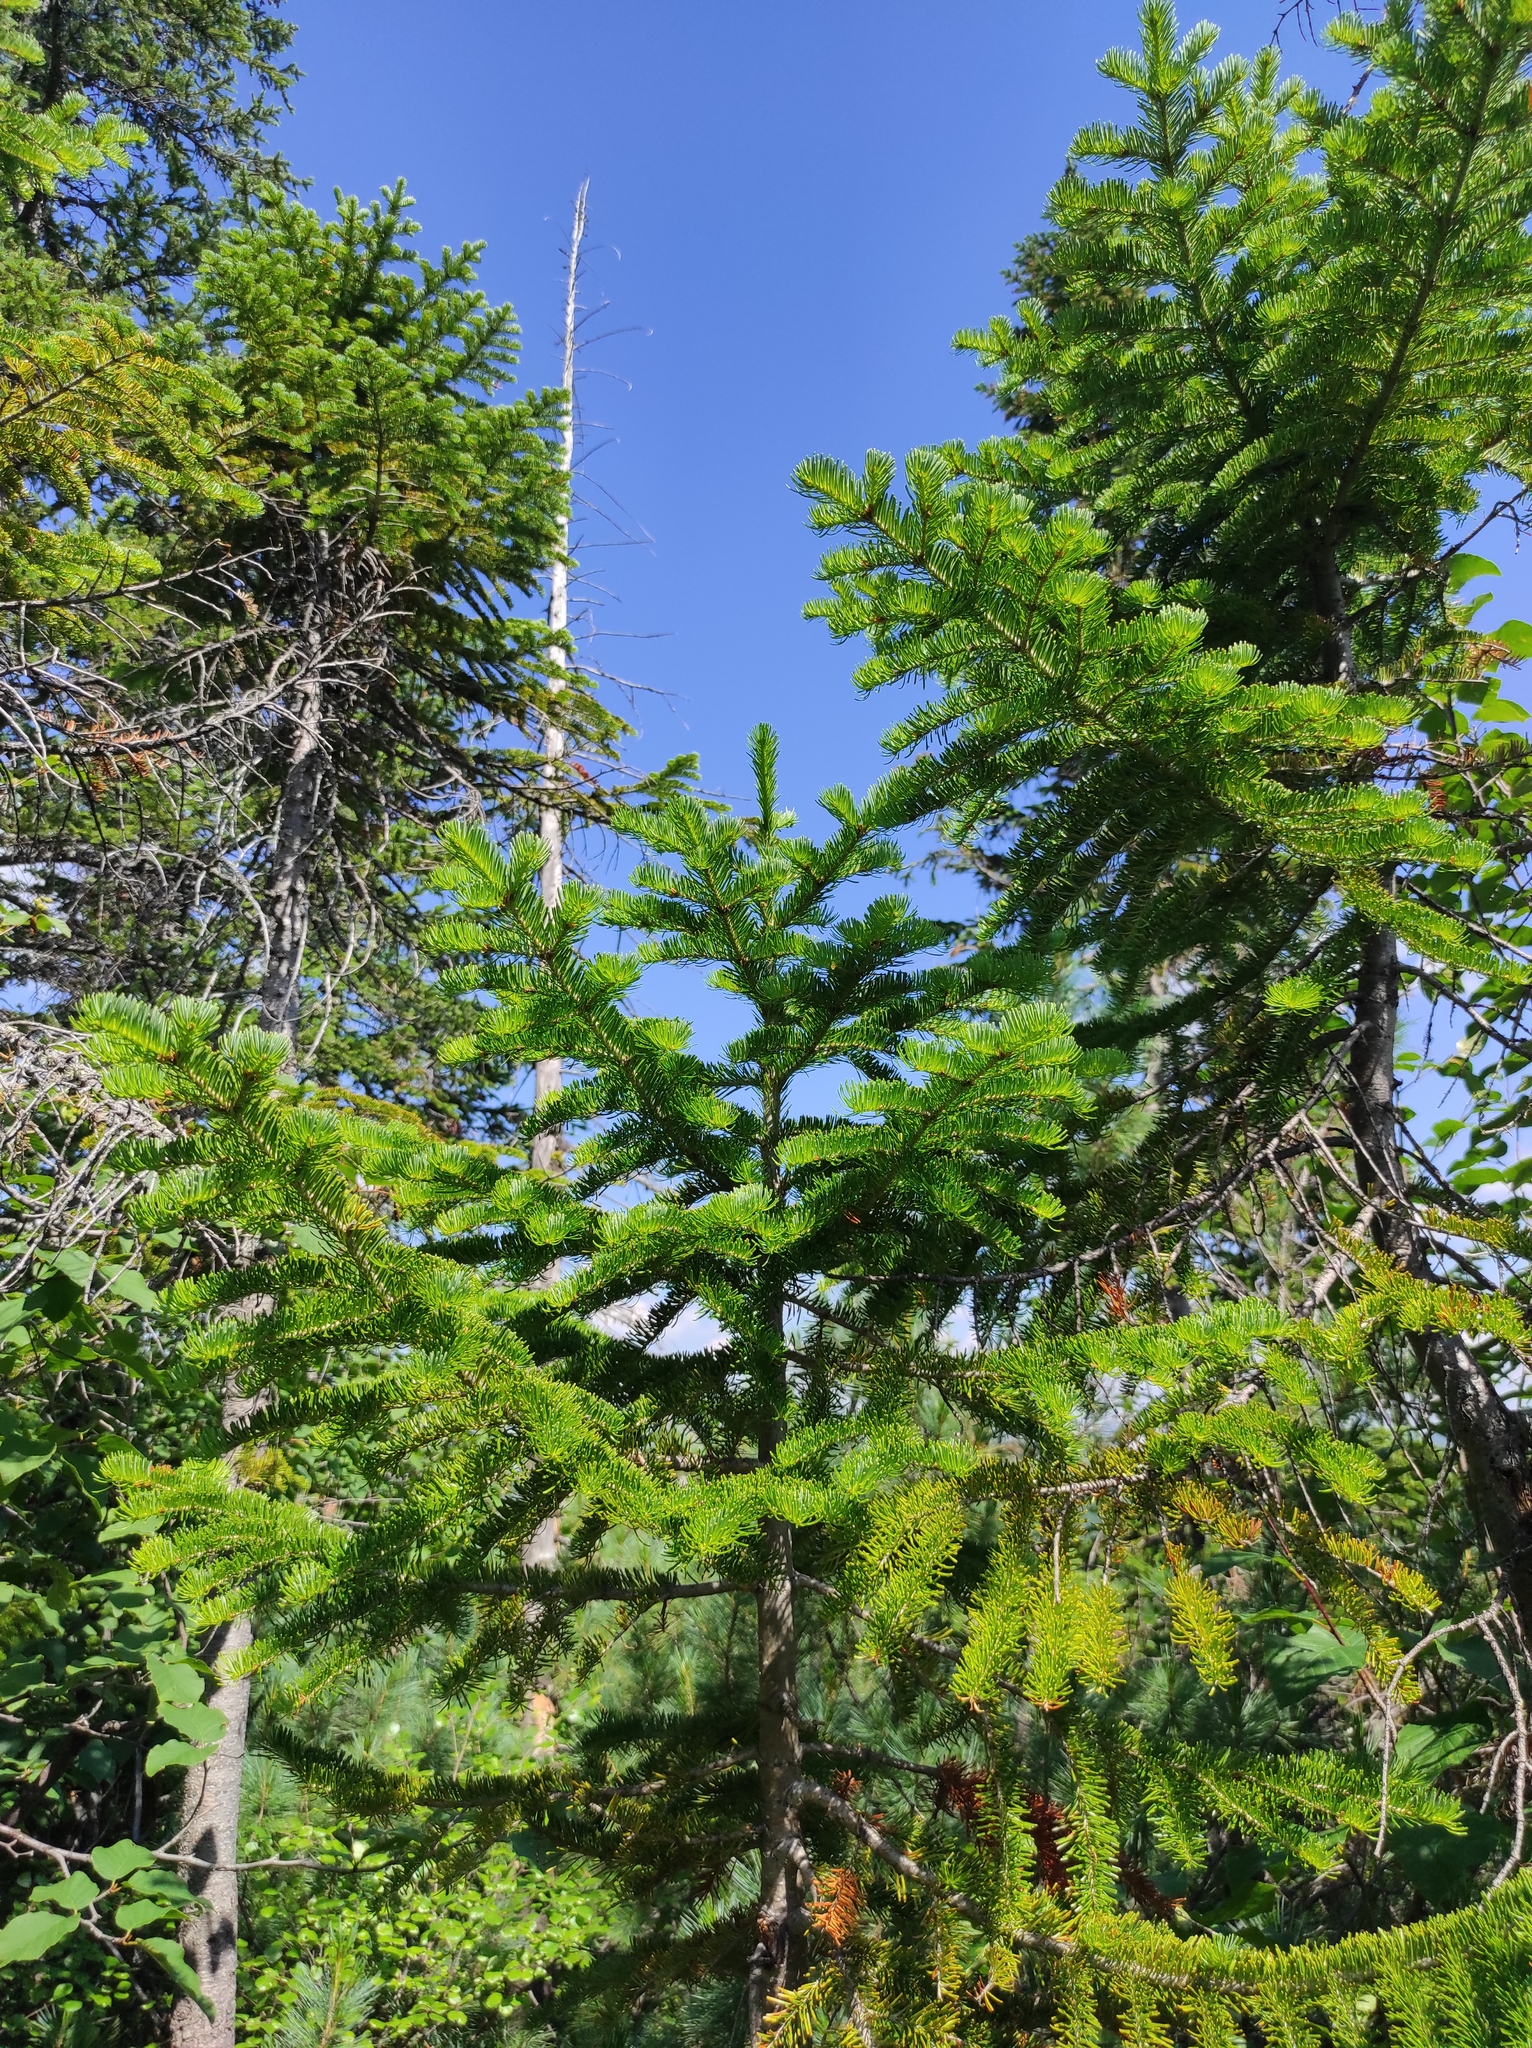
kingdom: Plantae
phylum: Tracheophyta
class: Pinopsida
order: Pinales
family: Pinaceae
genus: Abies
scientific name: Abies sibirica
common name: Siberian fir
